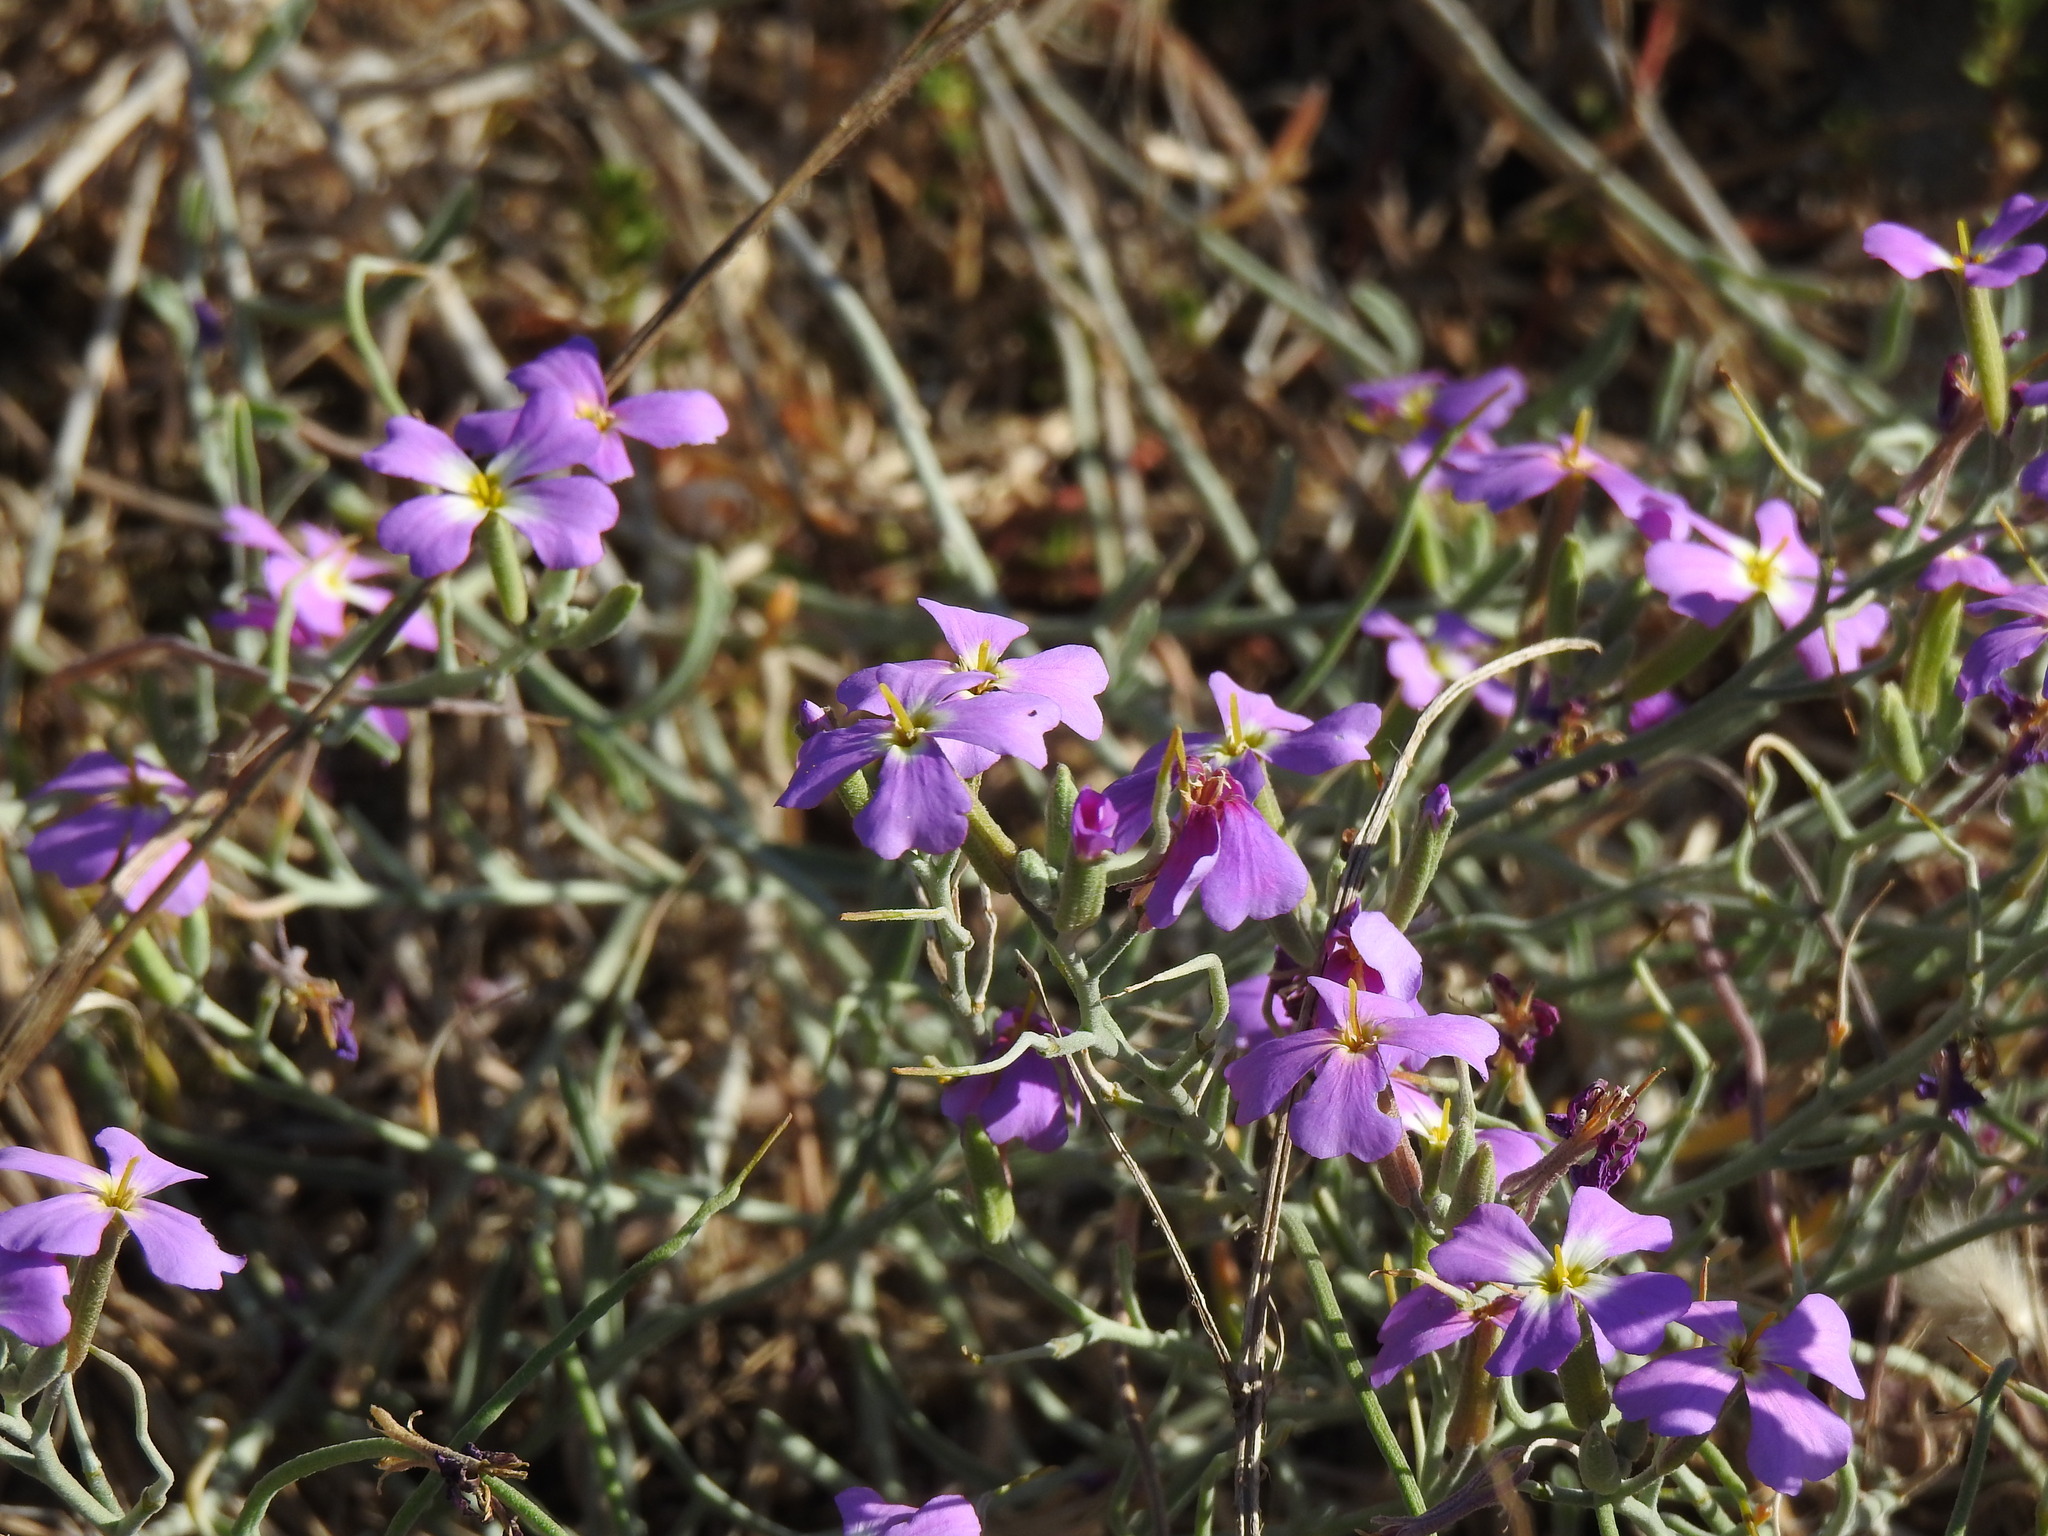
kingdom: Plantae
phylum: Tracheophyta
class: Magnoliopsida
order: Brassicales
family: Brassicaceae
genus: Marcuskochia
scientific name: Marcuskochia littorea
